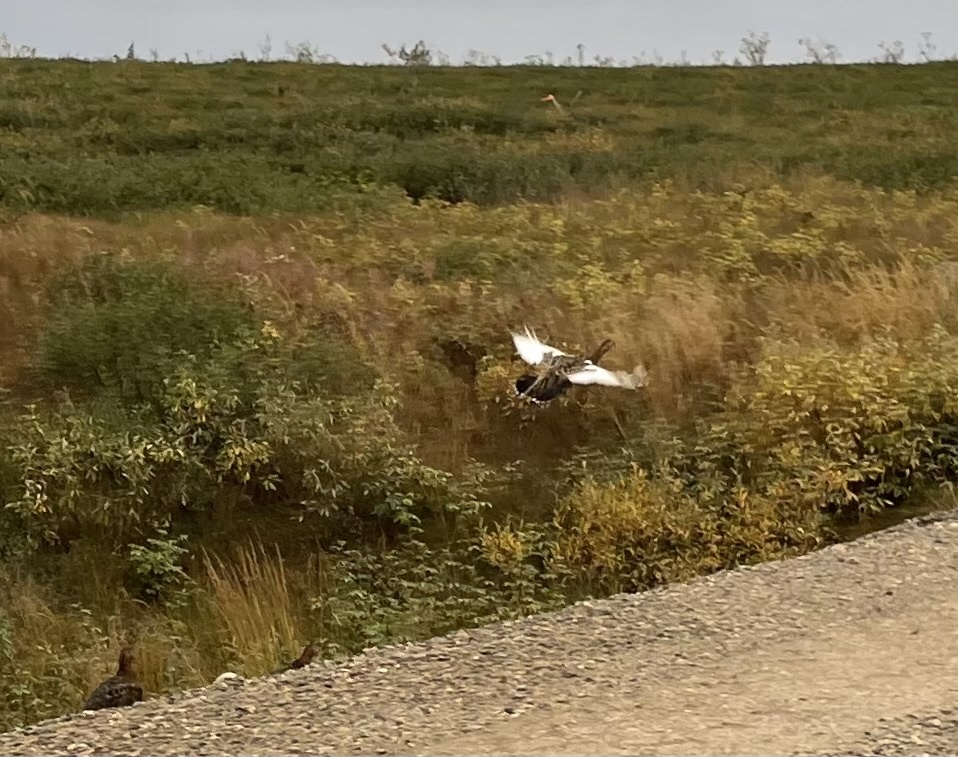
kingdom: Animalia
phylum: Chordata
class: Aves
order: Galliformes
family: Phasianidae
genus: Lagopus
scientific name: Lagopus lagopus
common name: Willow ptarmigan
